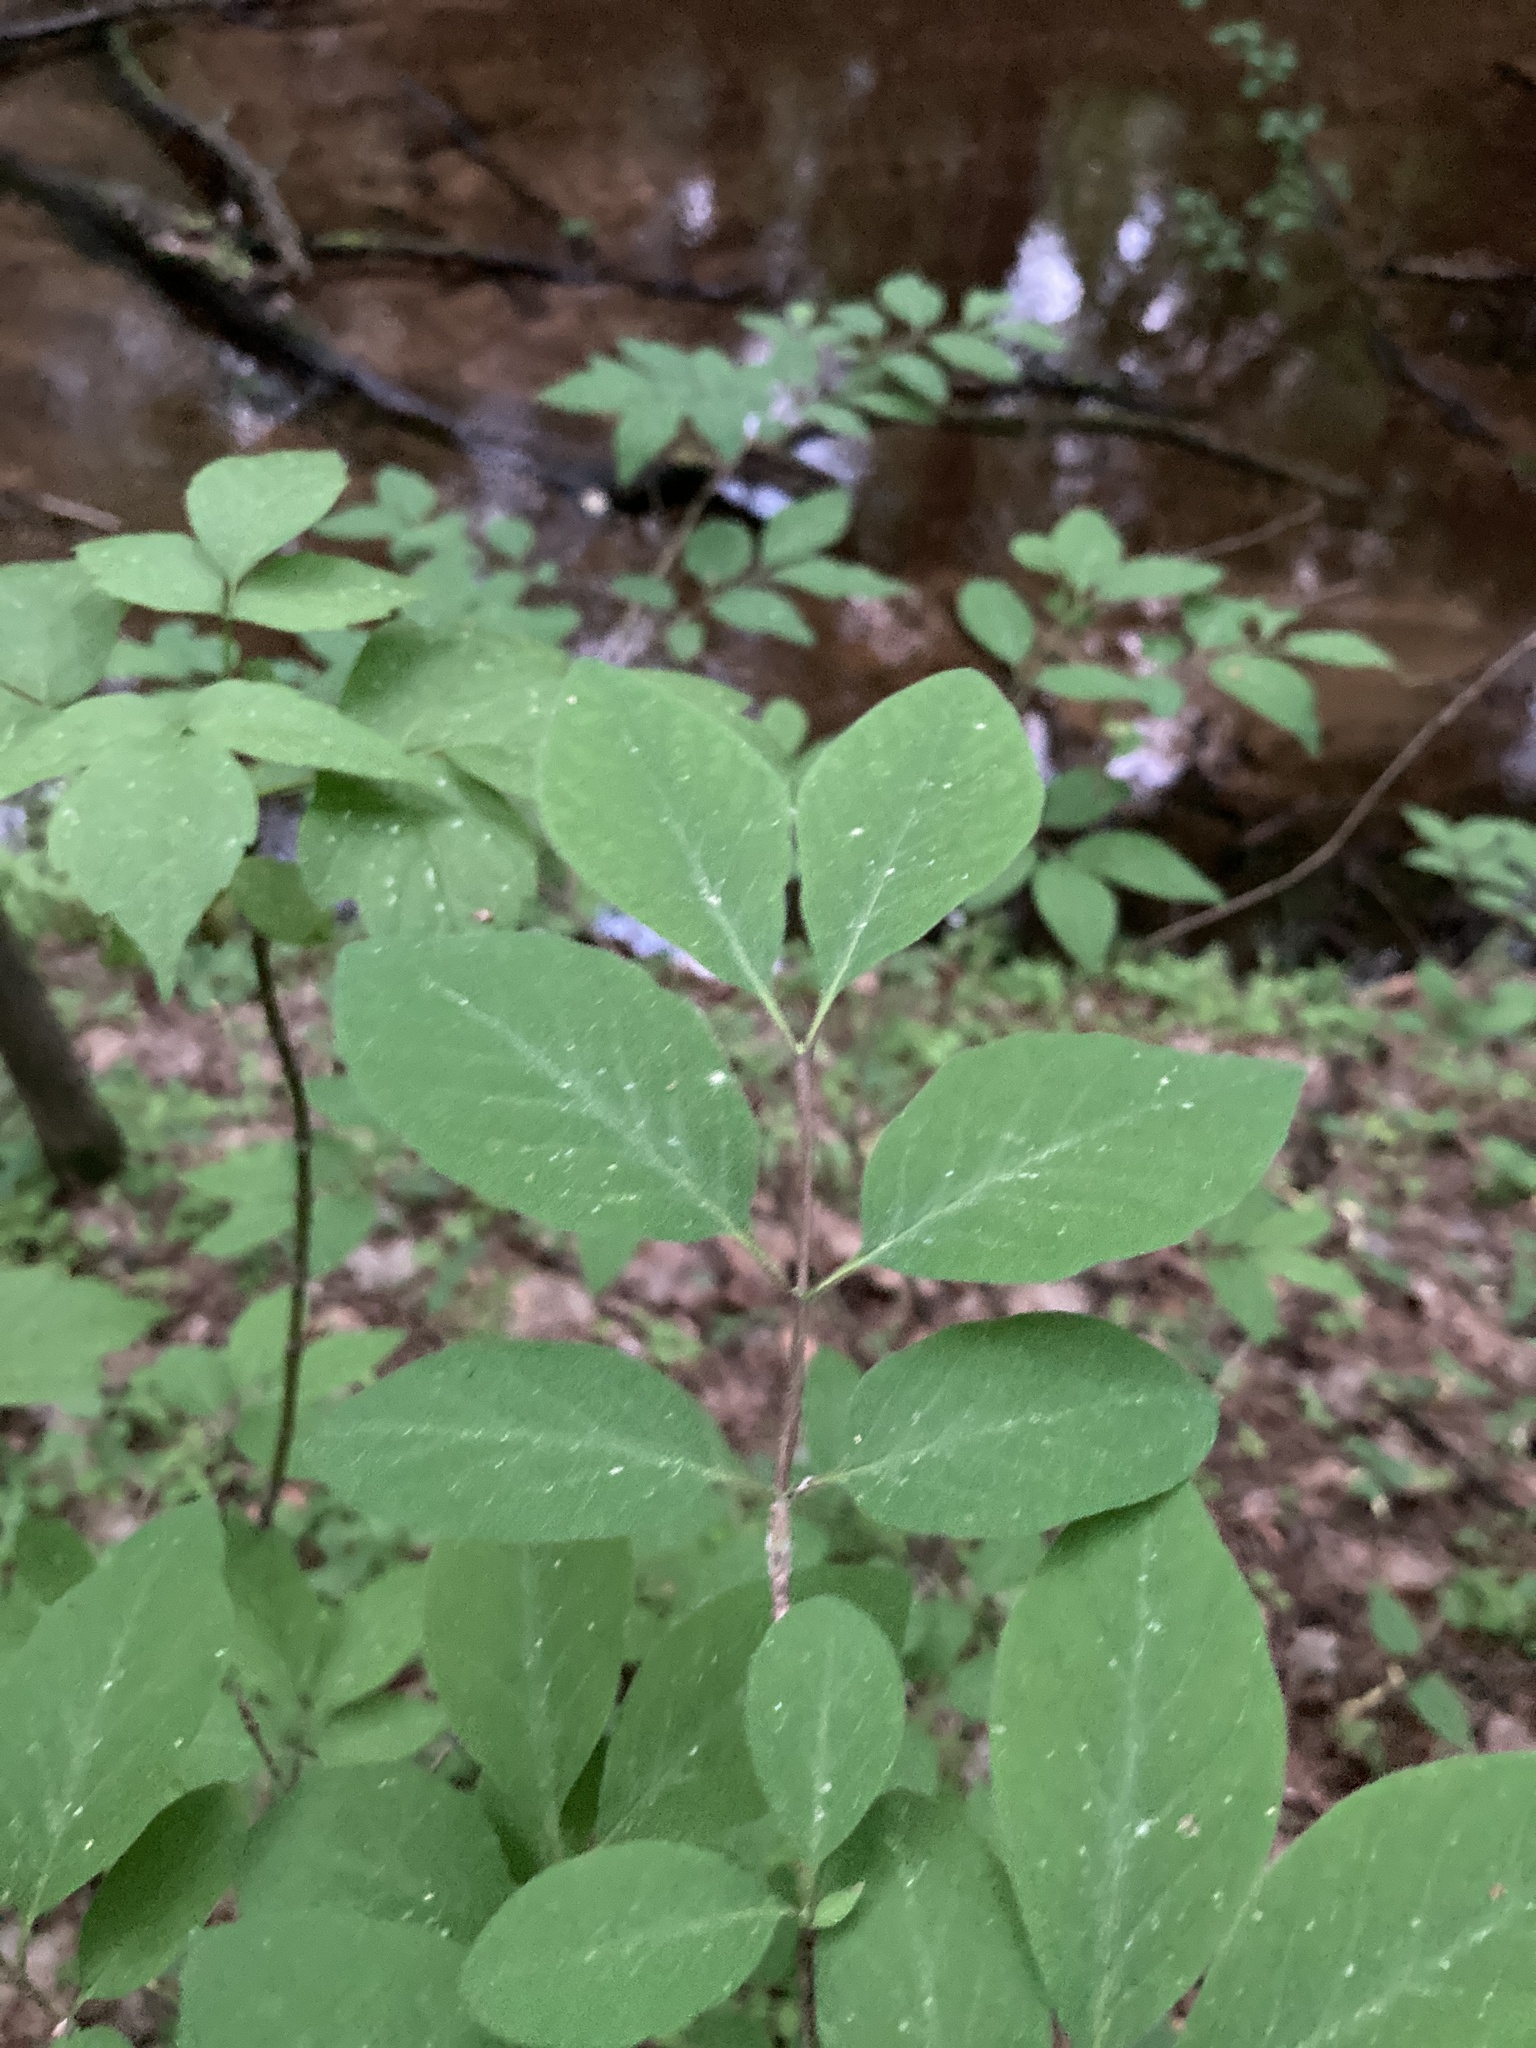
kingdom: Plantae
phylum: Tracheophyta
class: Magnoliopsida
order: Dipsacales
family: Caprifoliaceae
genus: Lonicera
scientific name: Lonicera xylosteum
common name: Fly honeysuckle
